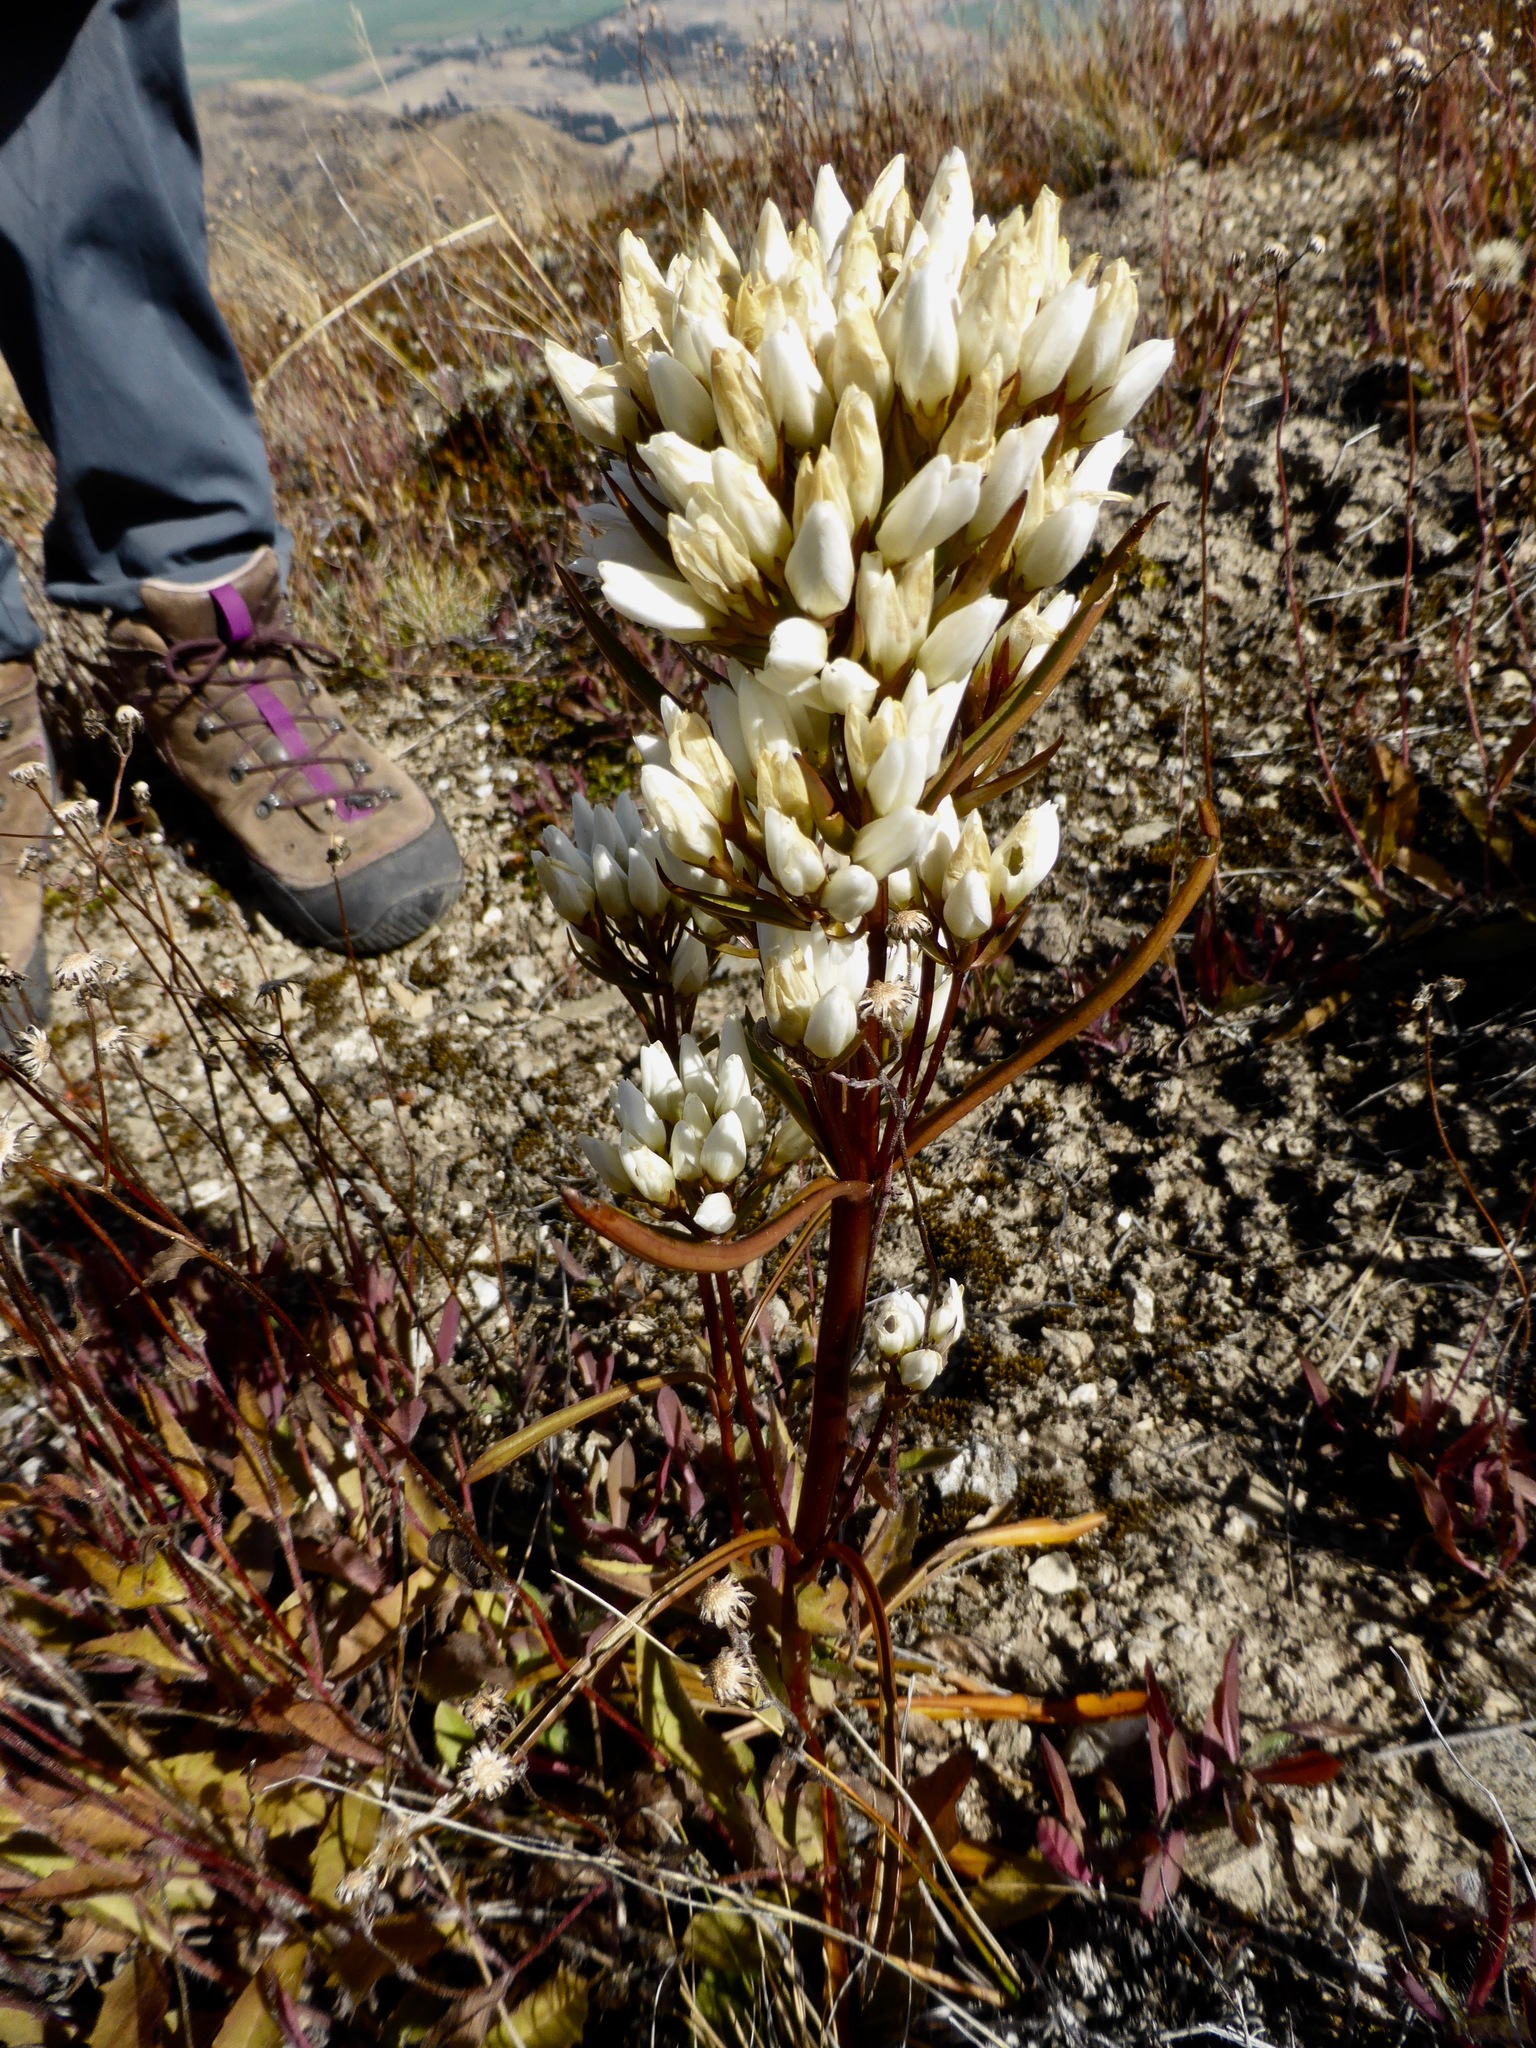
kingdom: Plantae
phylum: Tracheophyta
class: Magnoliopsida
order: Gentianales
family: Gentianaceae
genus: Gentianella
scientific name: Gentianella corymbifera
